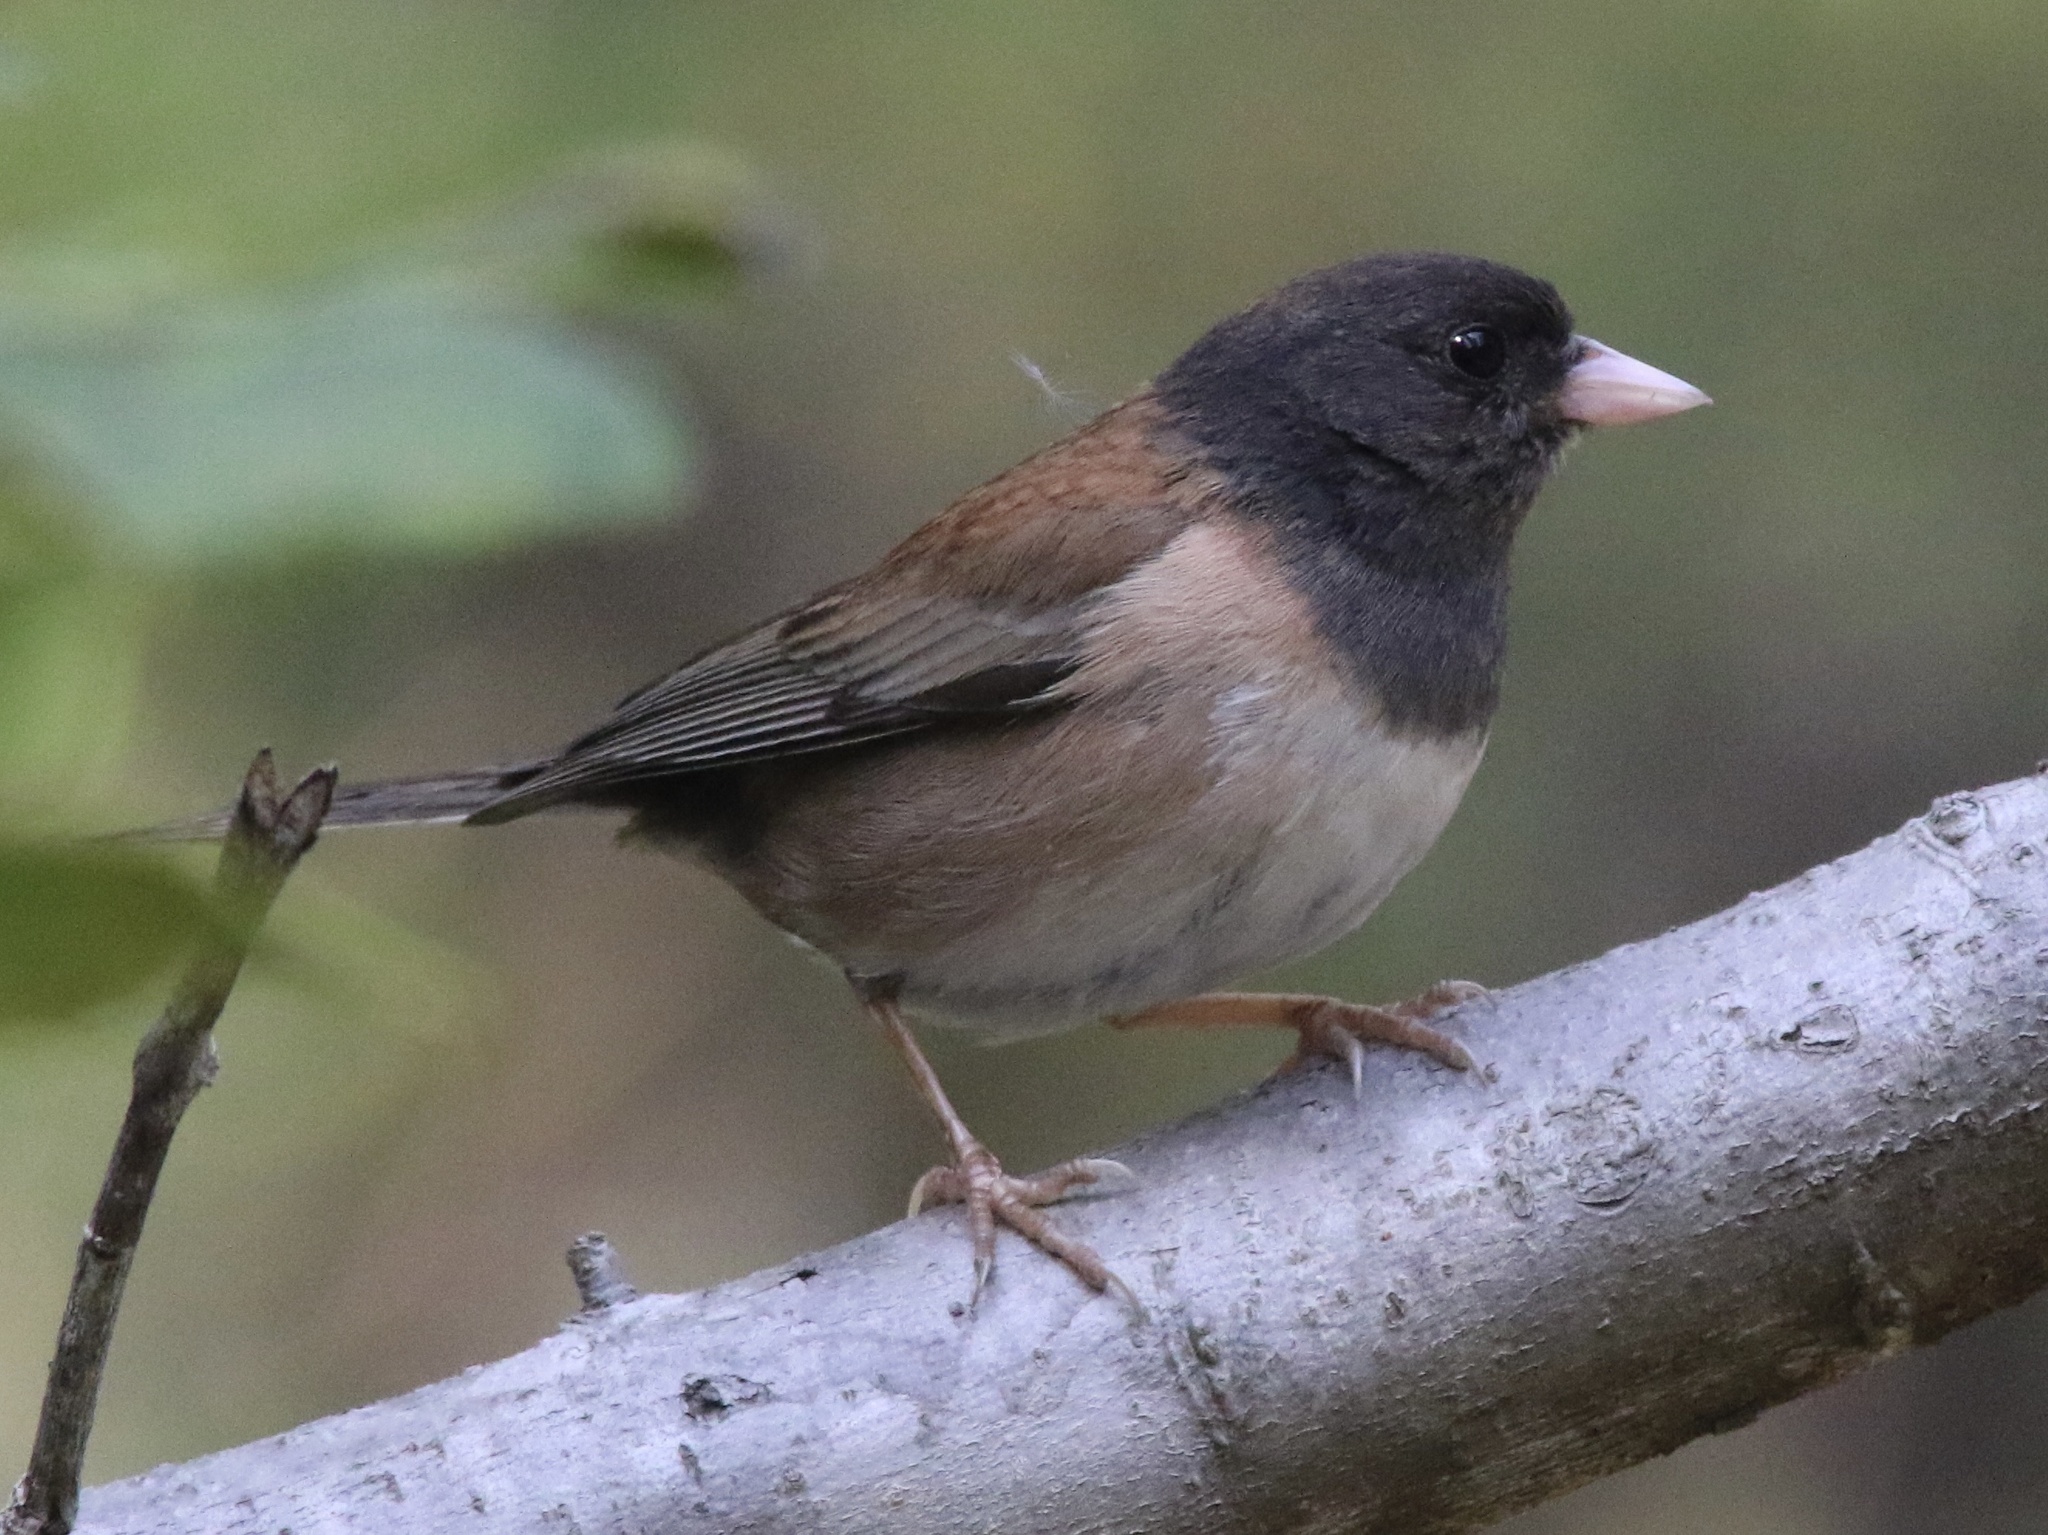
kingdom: Animalia
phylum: Chordata
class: Aves
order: Passeriformes
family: Passerellidae
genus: Junco
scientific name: Junco hyemalis
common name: Dark-eyed junco
